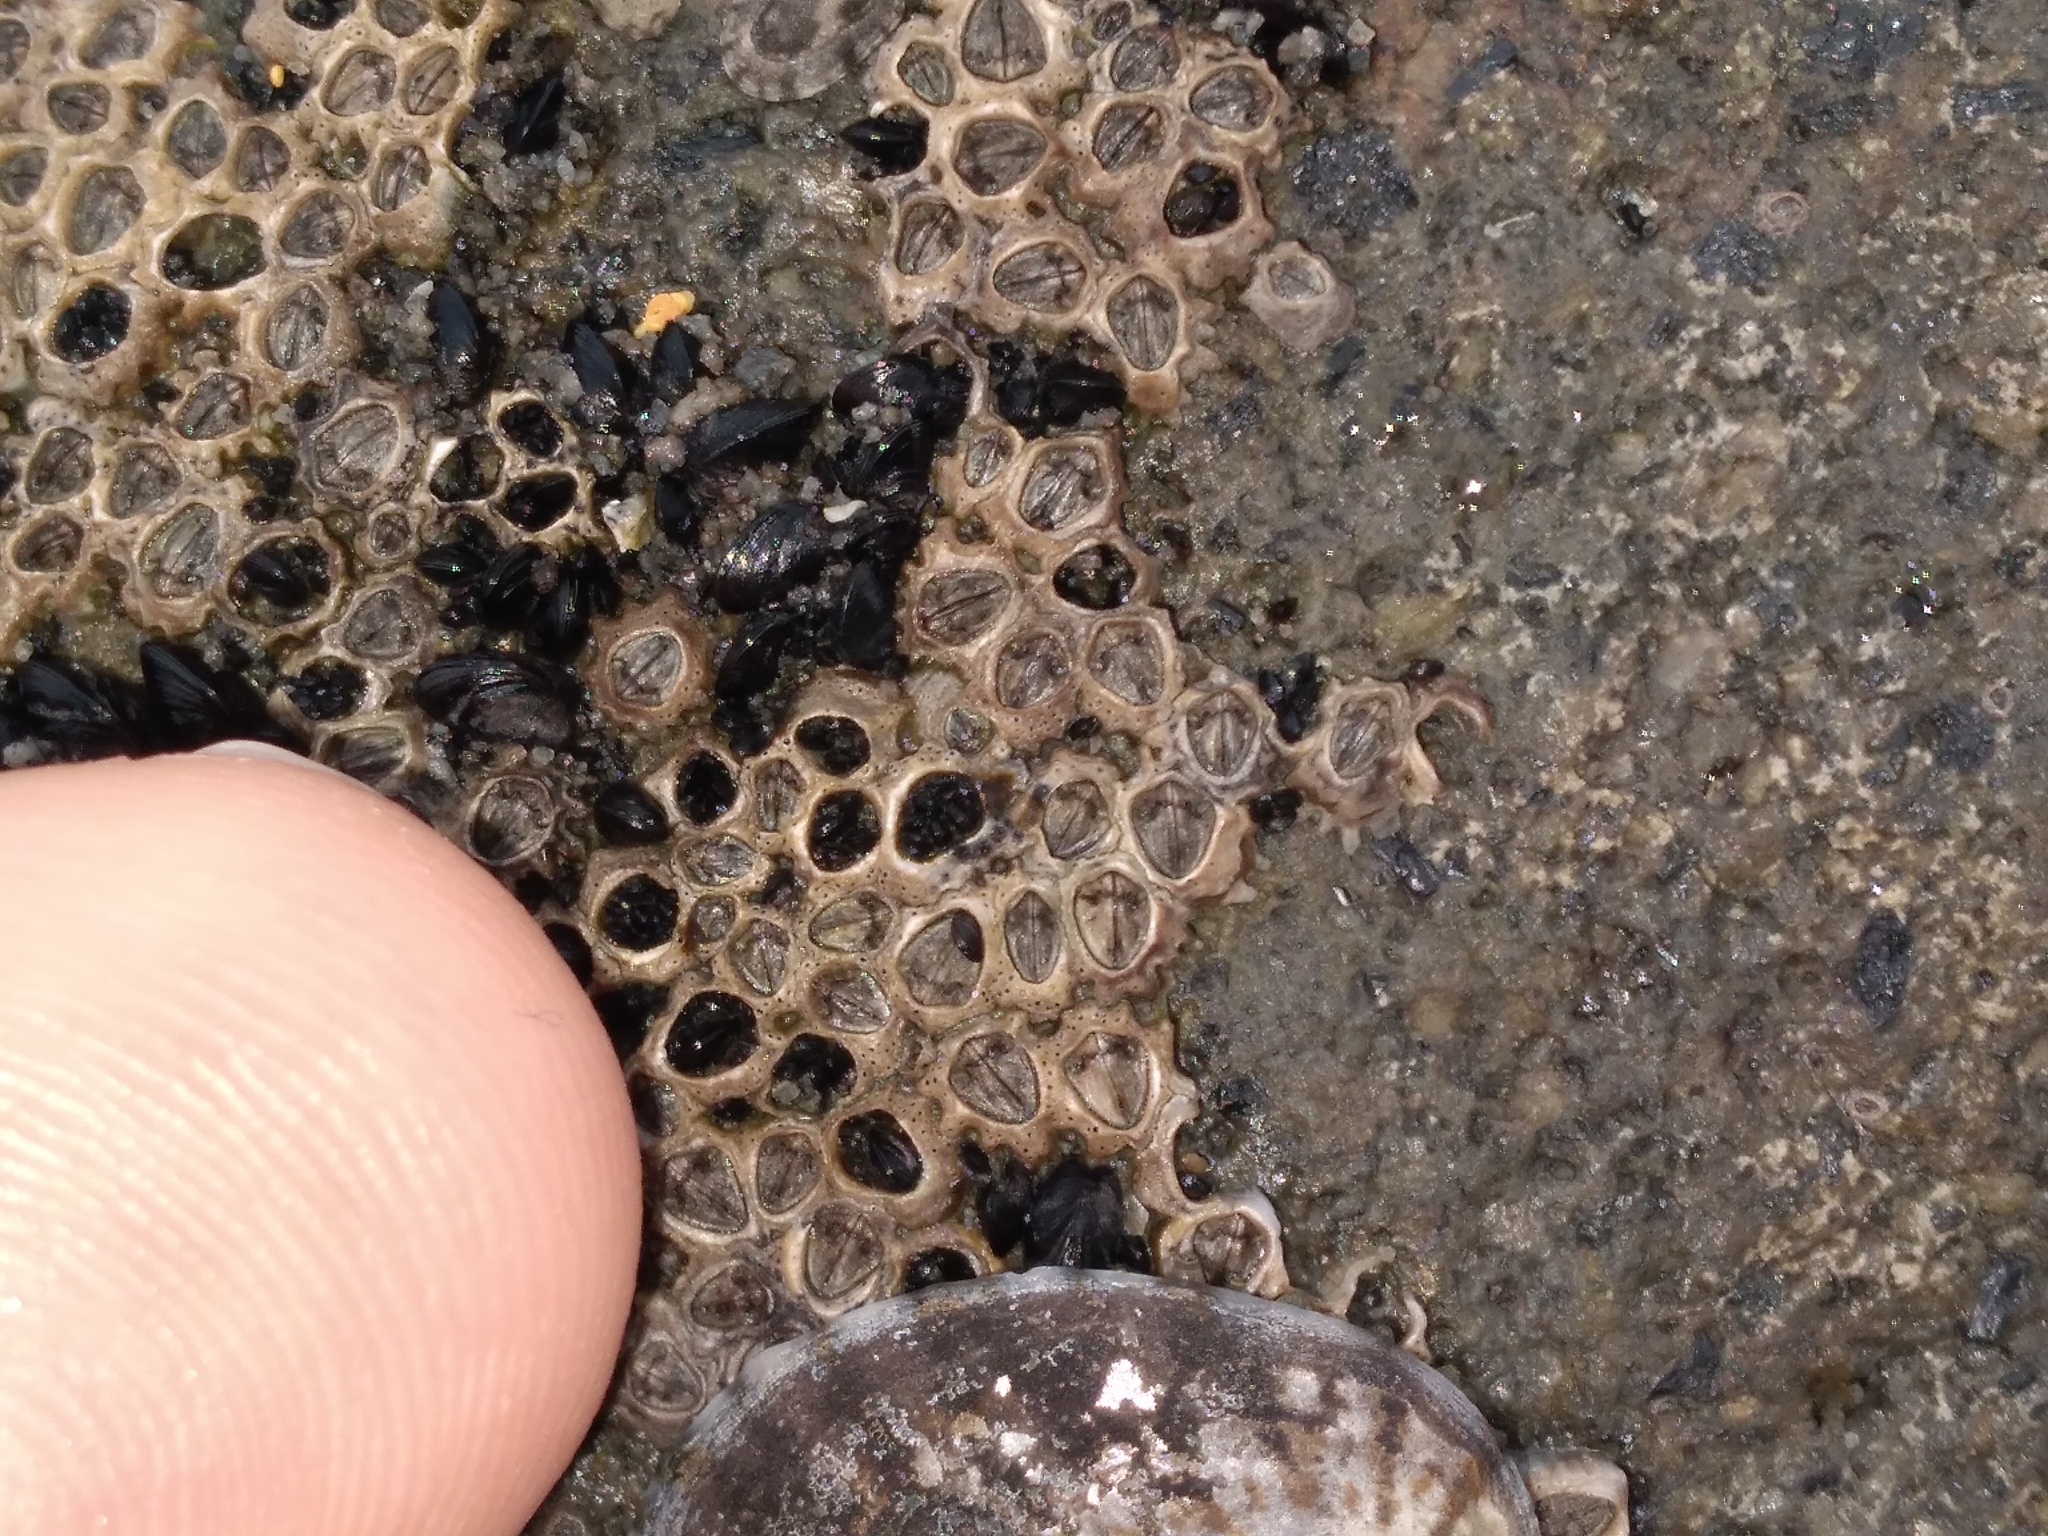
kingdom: Animalia
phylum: Arthropoda
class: Maxillopoda
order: Sessilia
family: Chthamalidae
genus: Chamaesipho
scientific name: Chamaesipho columna
